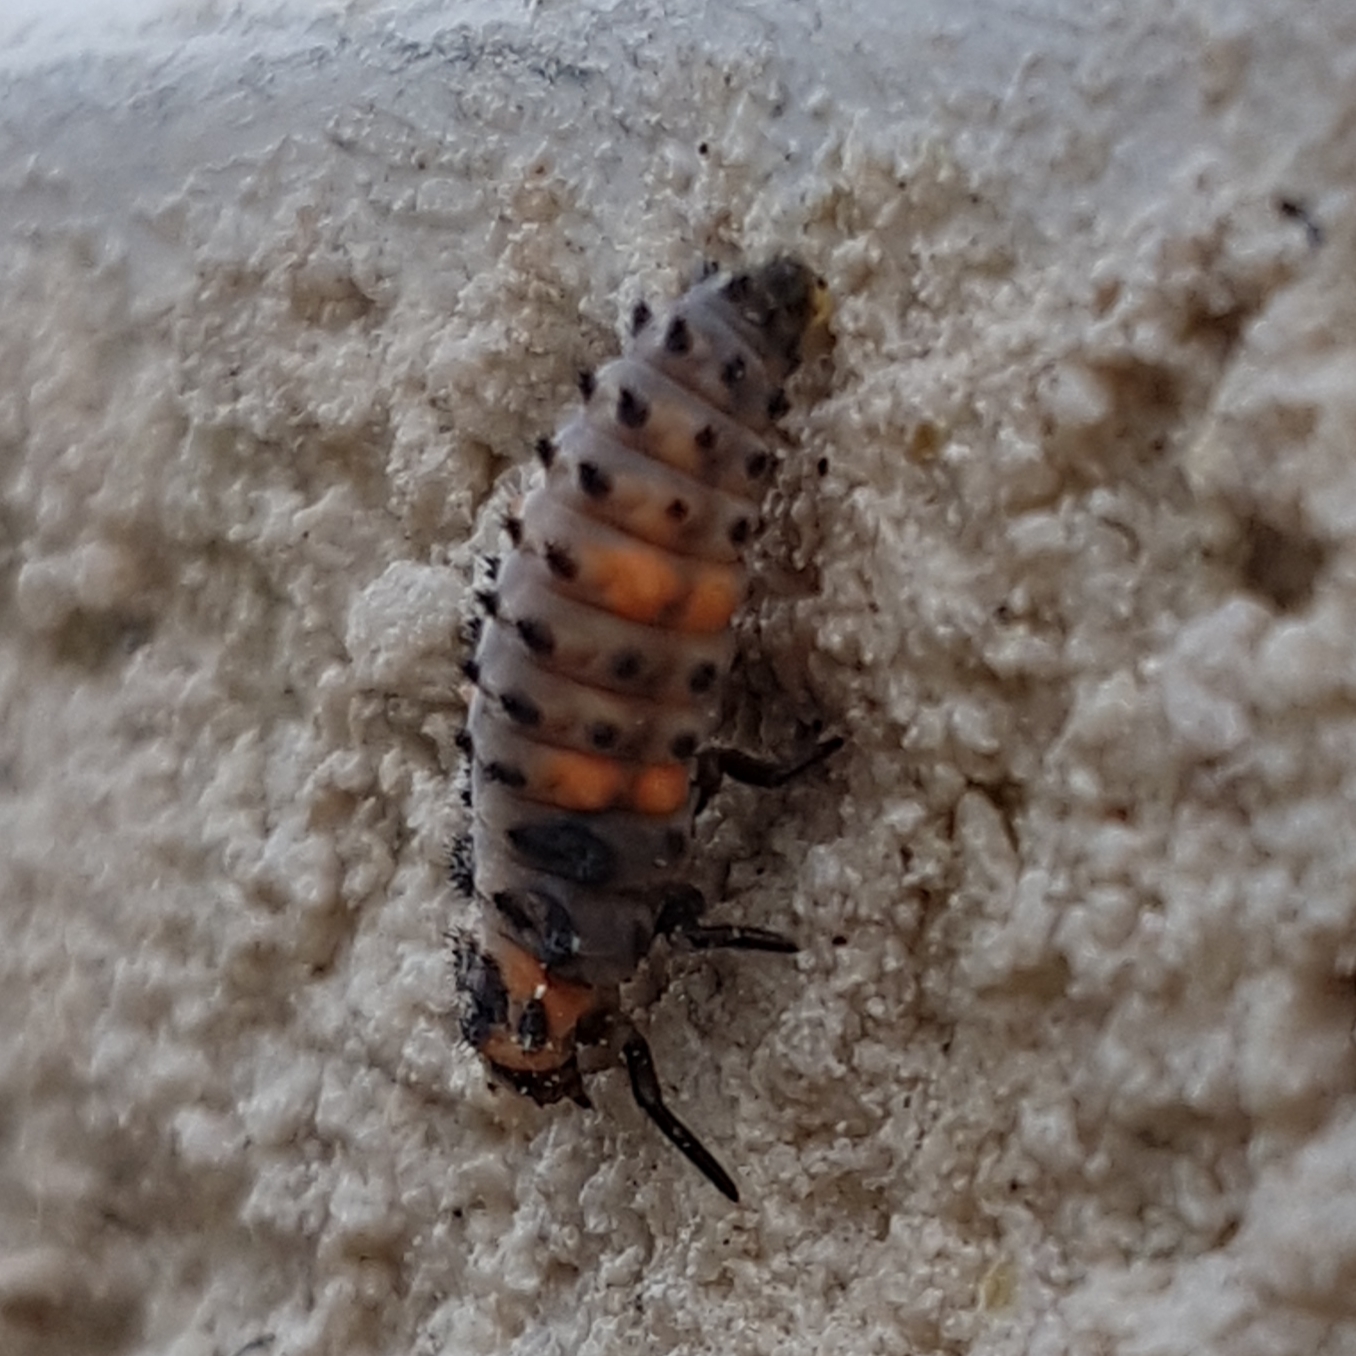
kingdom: Animalia
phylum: Arthropoda
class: Insecta
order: Coleoptera
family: Coccinellidae
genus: Coccinella
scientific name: Coccinella septempunctata
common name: Sevenspotted lady beetle
